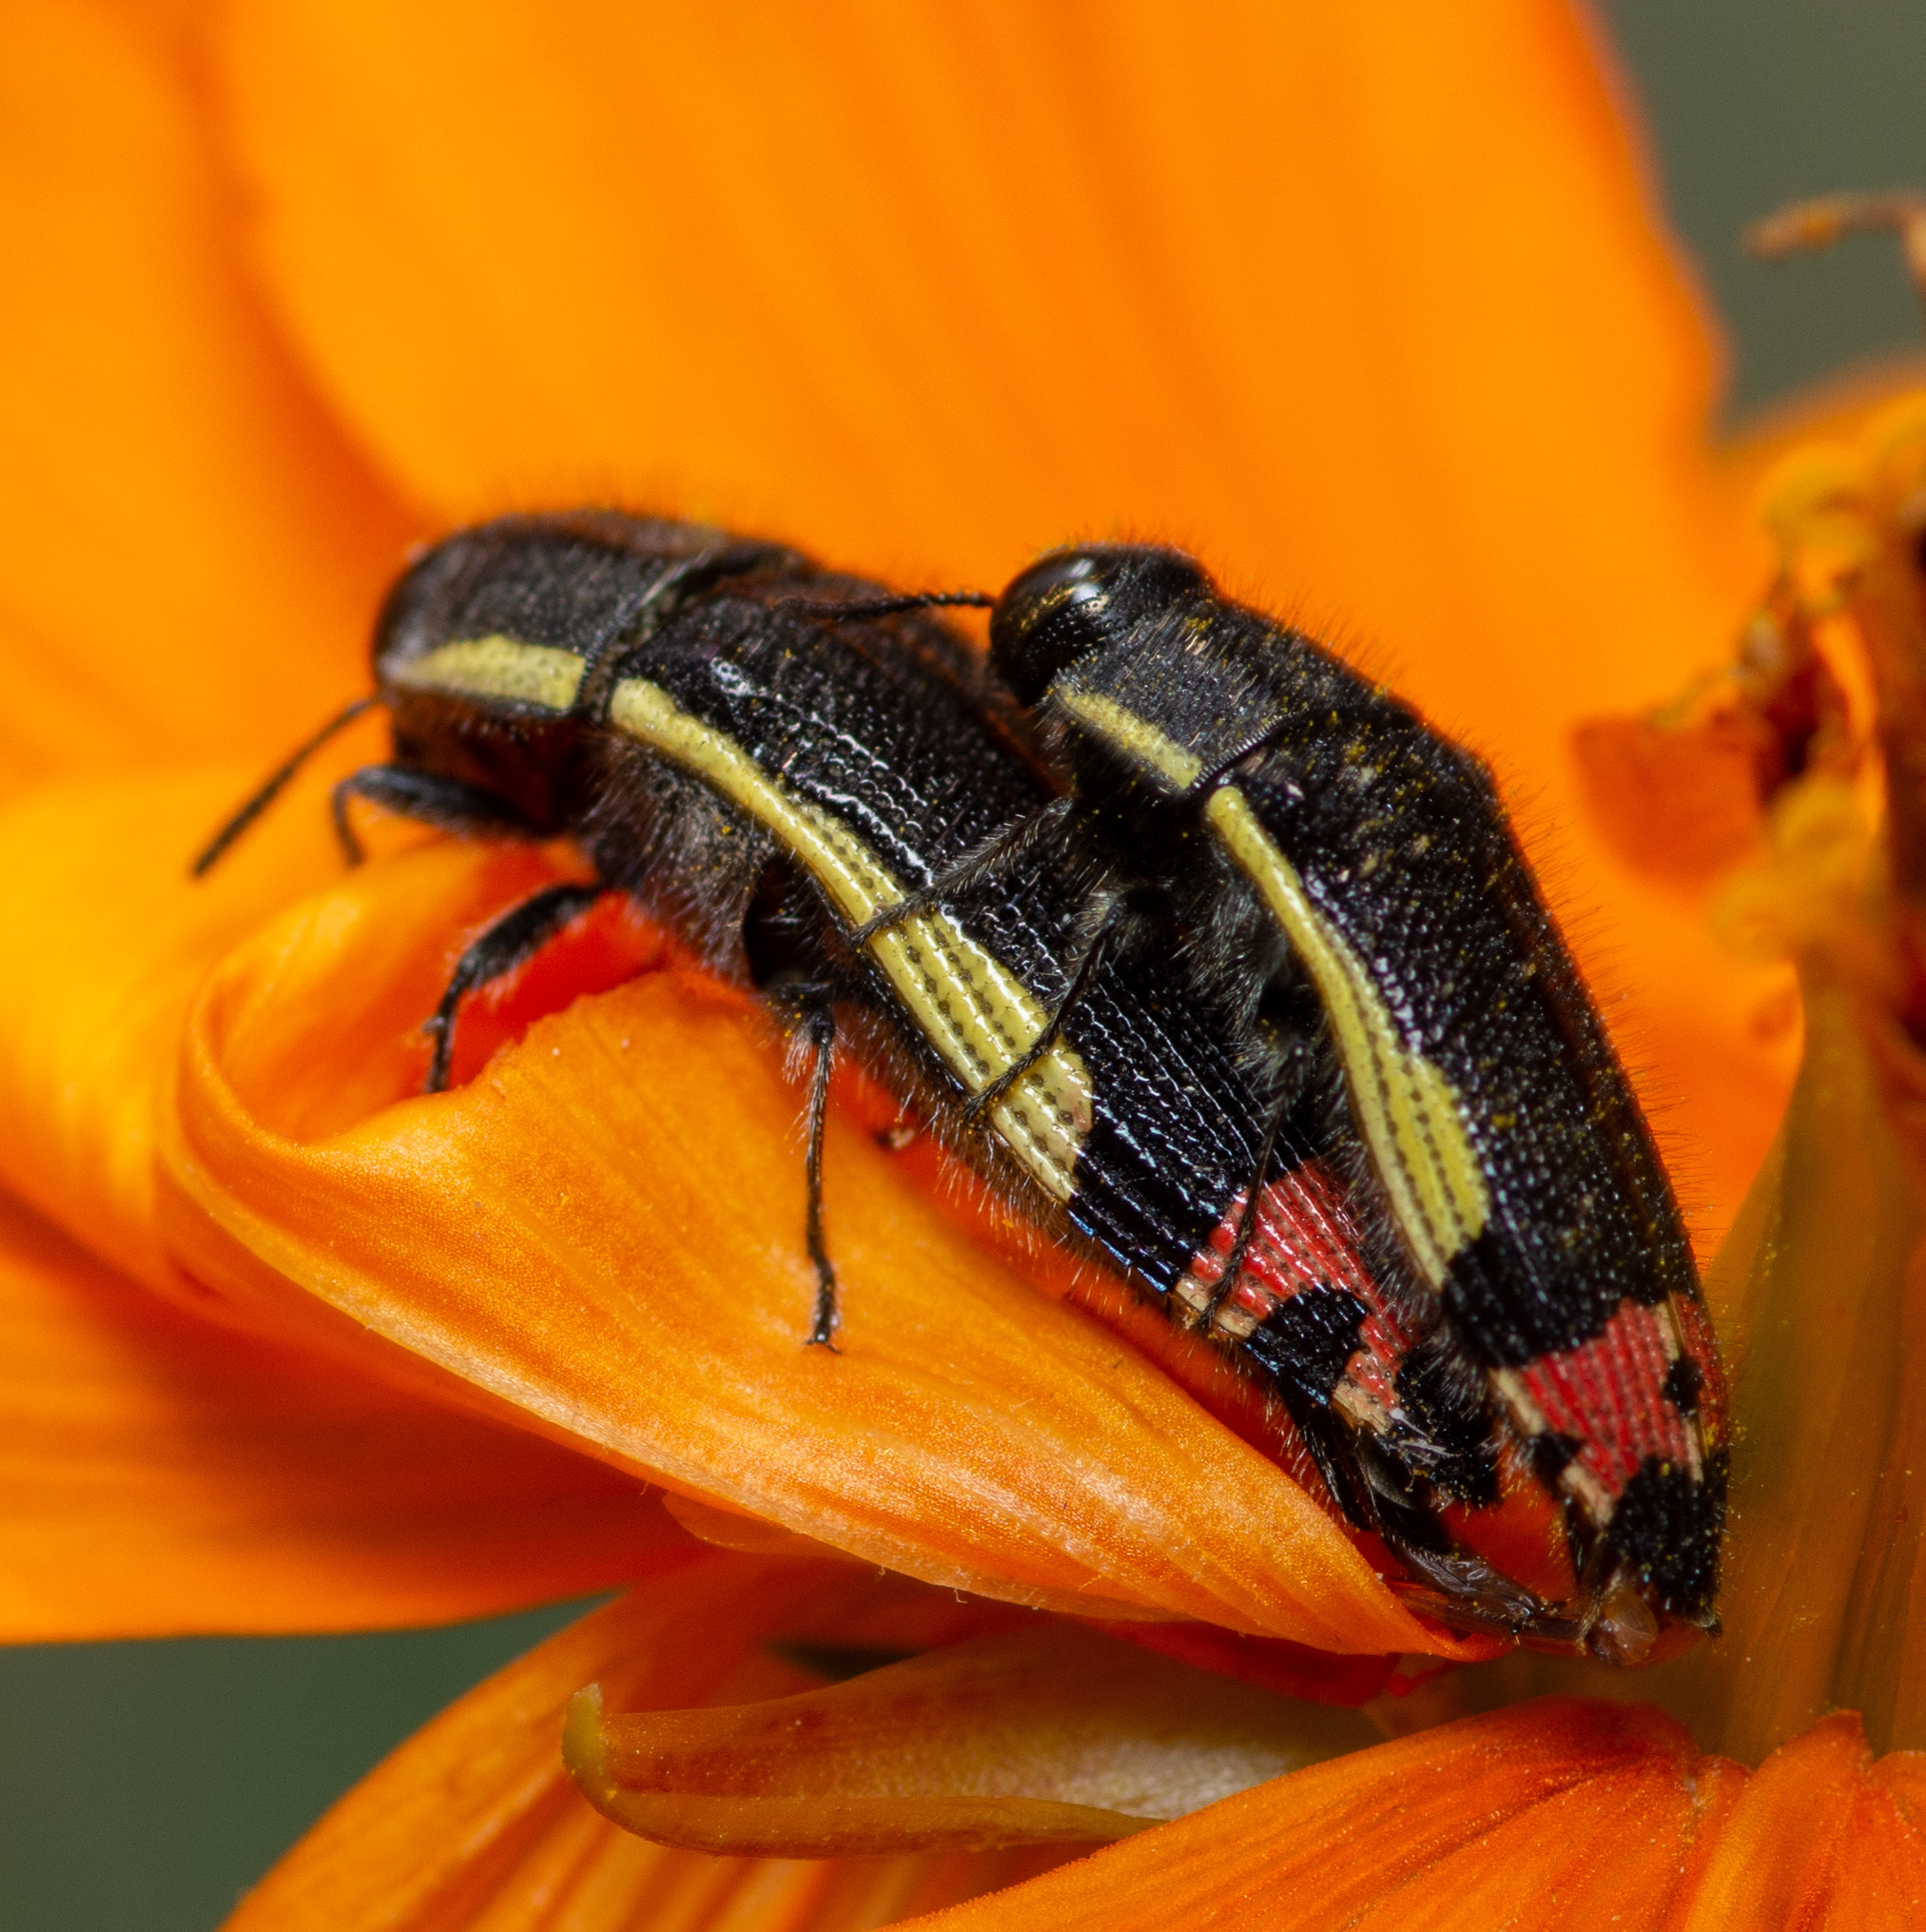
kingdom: Animalia
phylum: Arthropoda
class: Insecta
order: Coleoptera
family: Buprestidae
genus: Acmaeodera
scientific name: Acmaeodera flavomarginata
